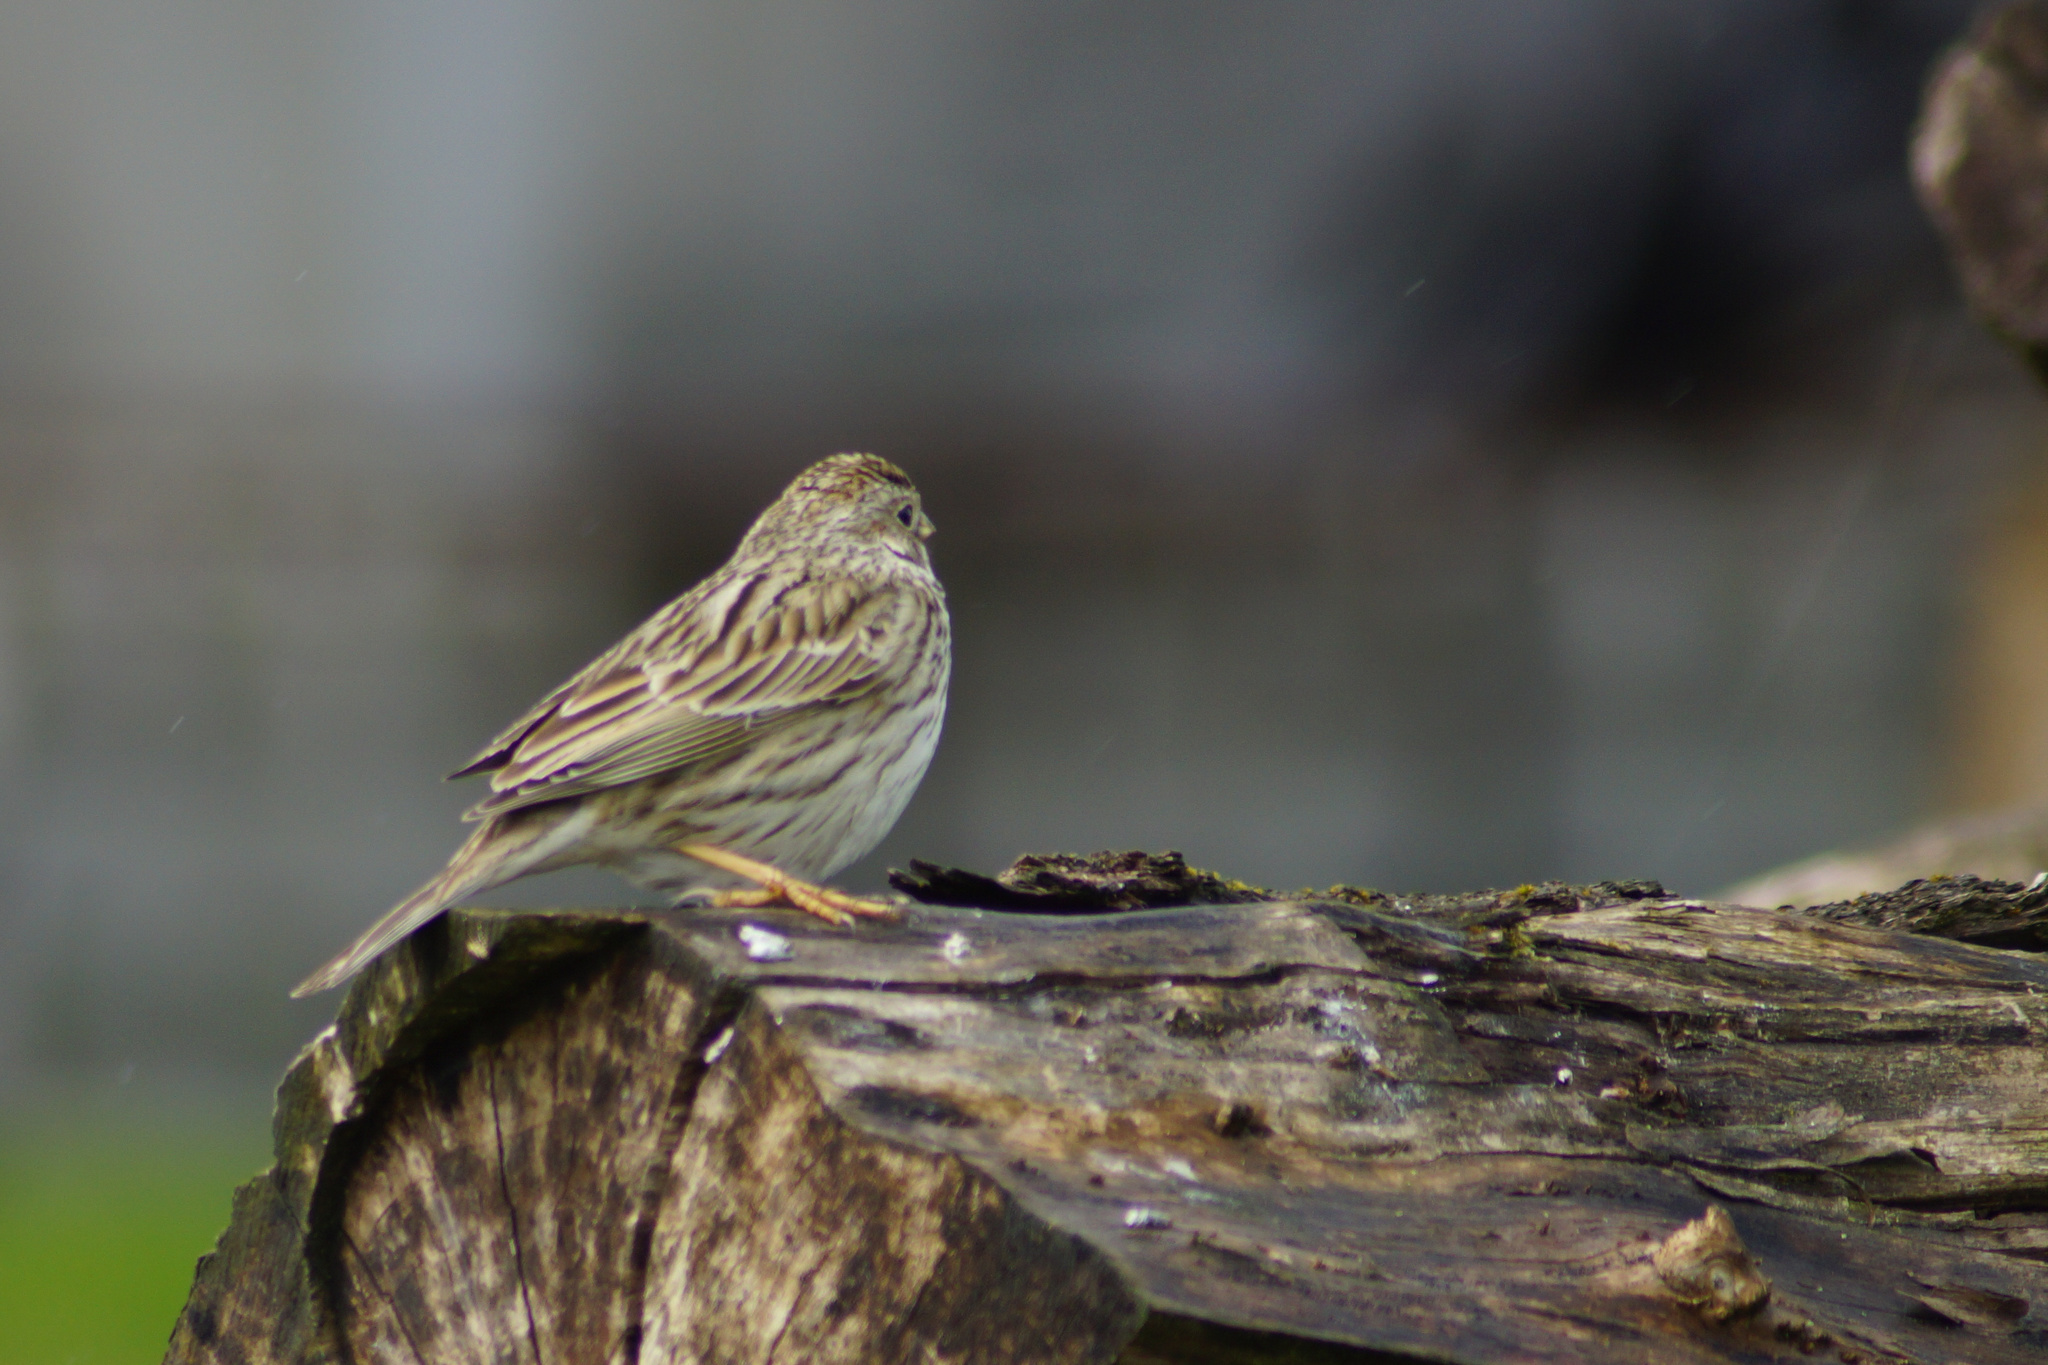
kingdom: Animalia
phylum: Chordata
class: Aves
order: Passeriformes
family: Emberizidae
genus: Emberiza
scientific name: Emberiza calandra
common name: Corn bunting
